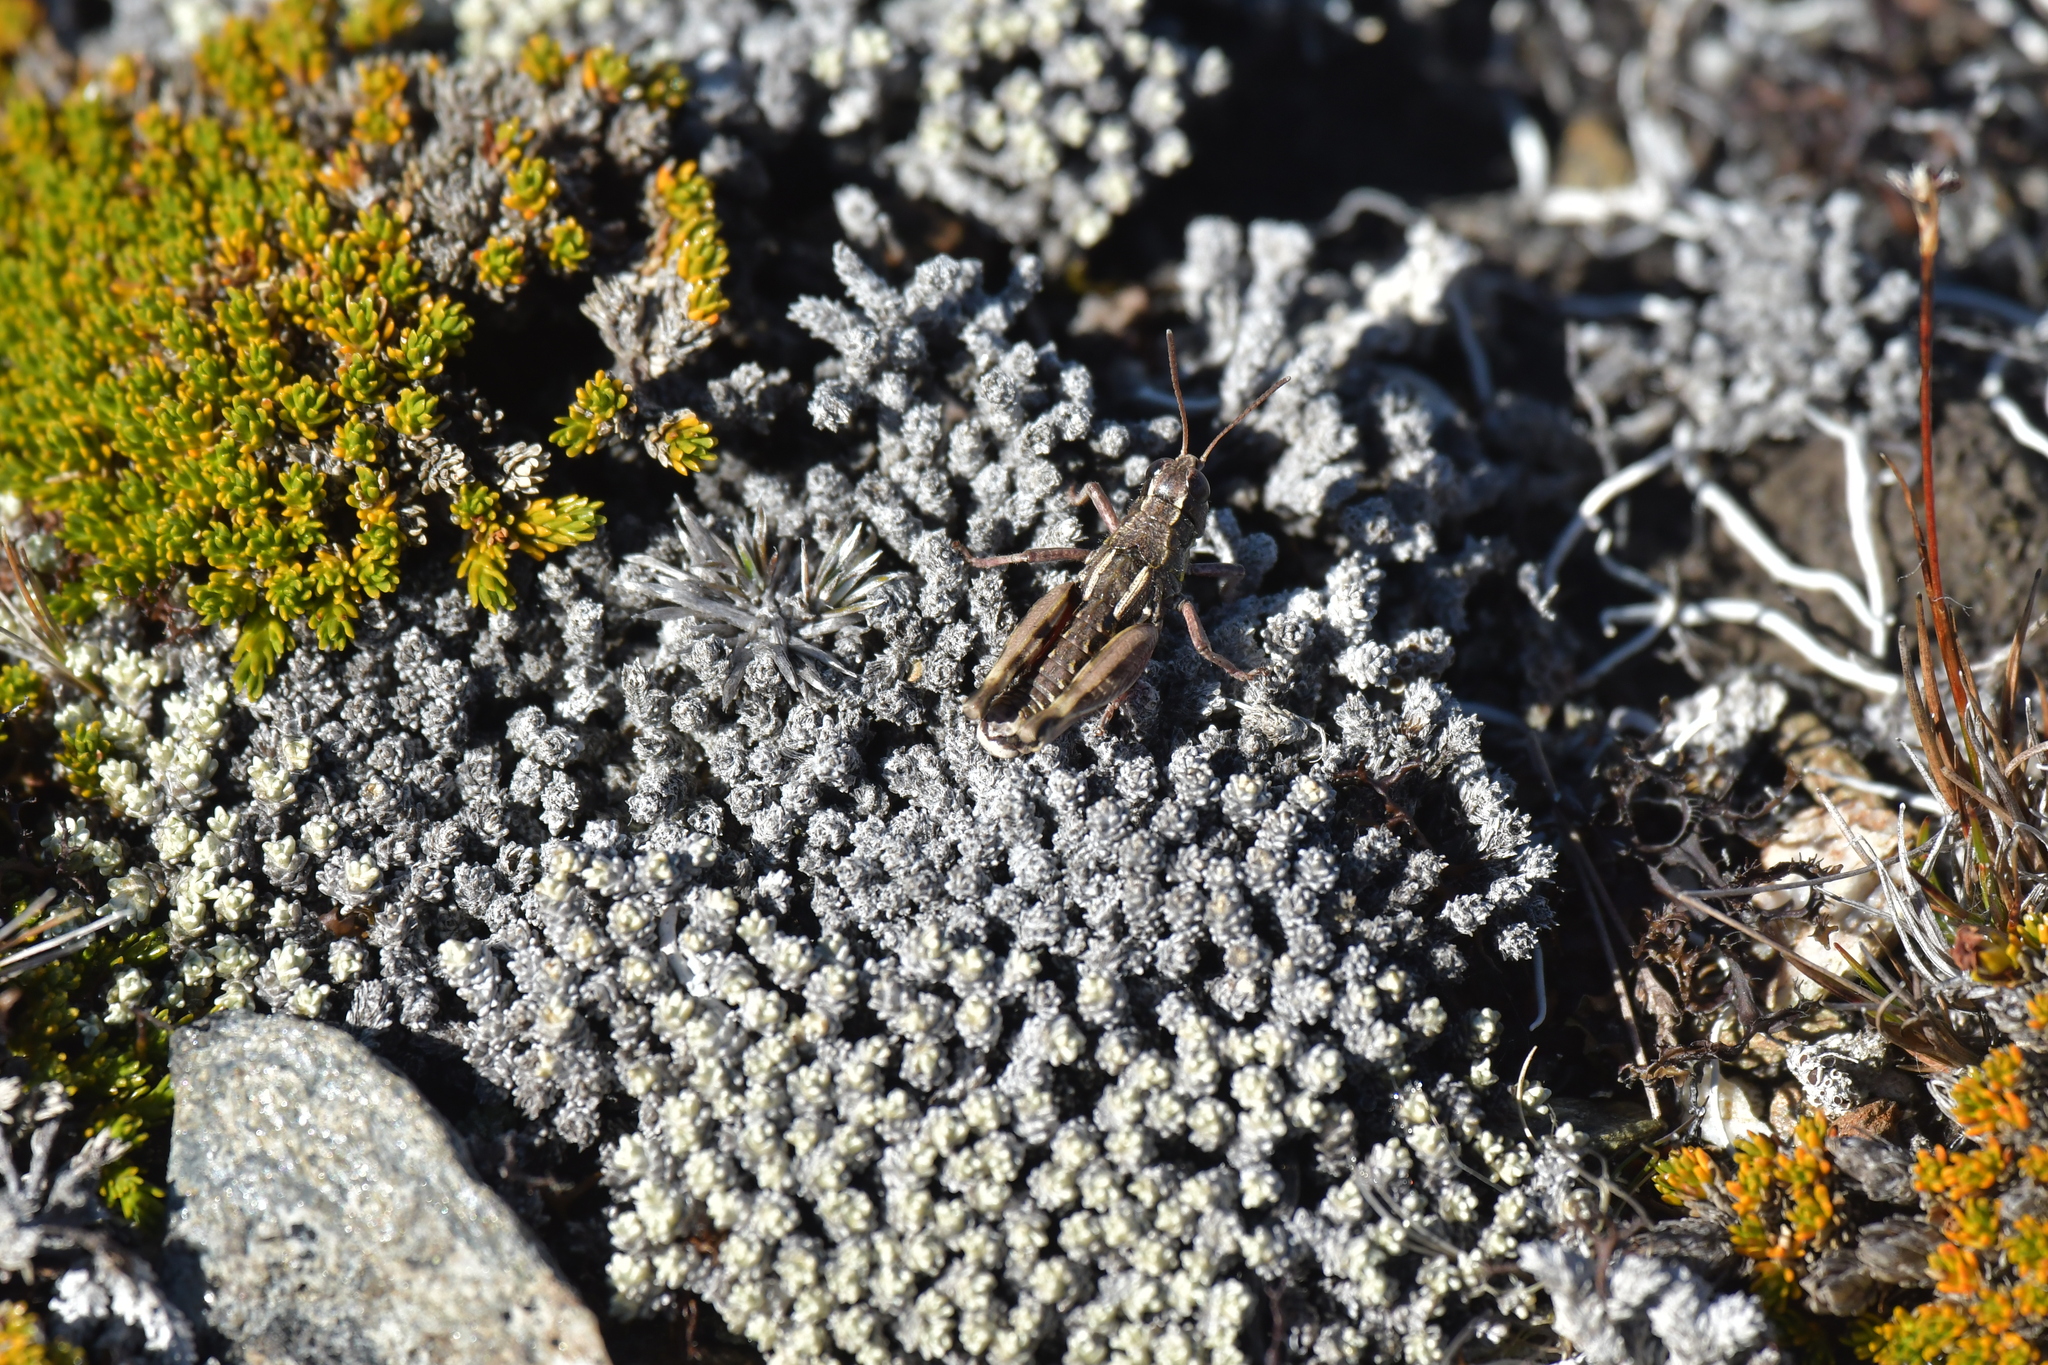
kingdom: Animalia
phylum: Arthropoda
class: Insecta
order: Orthoptera
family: Acrididae
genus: Sigaus
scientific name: Sigaus australis
